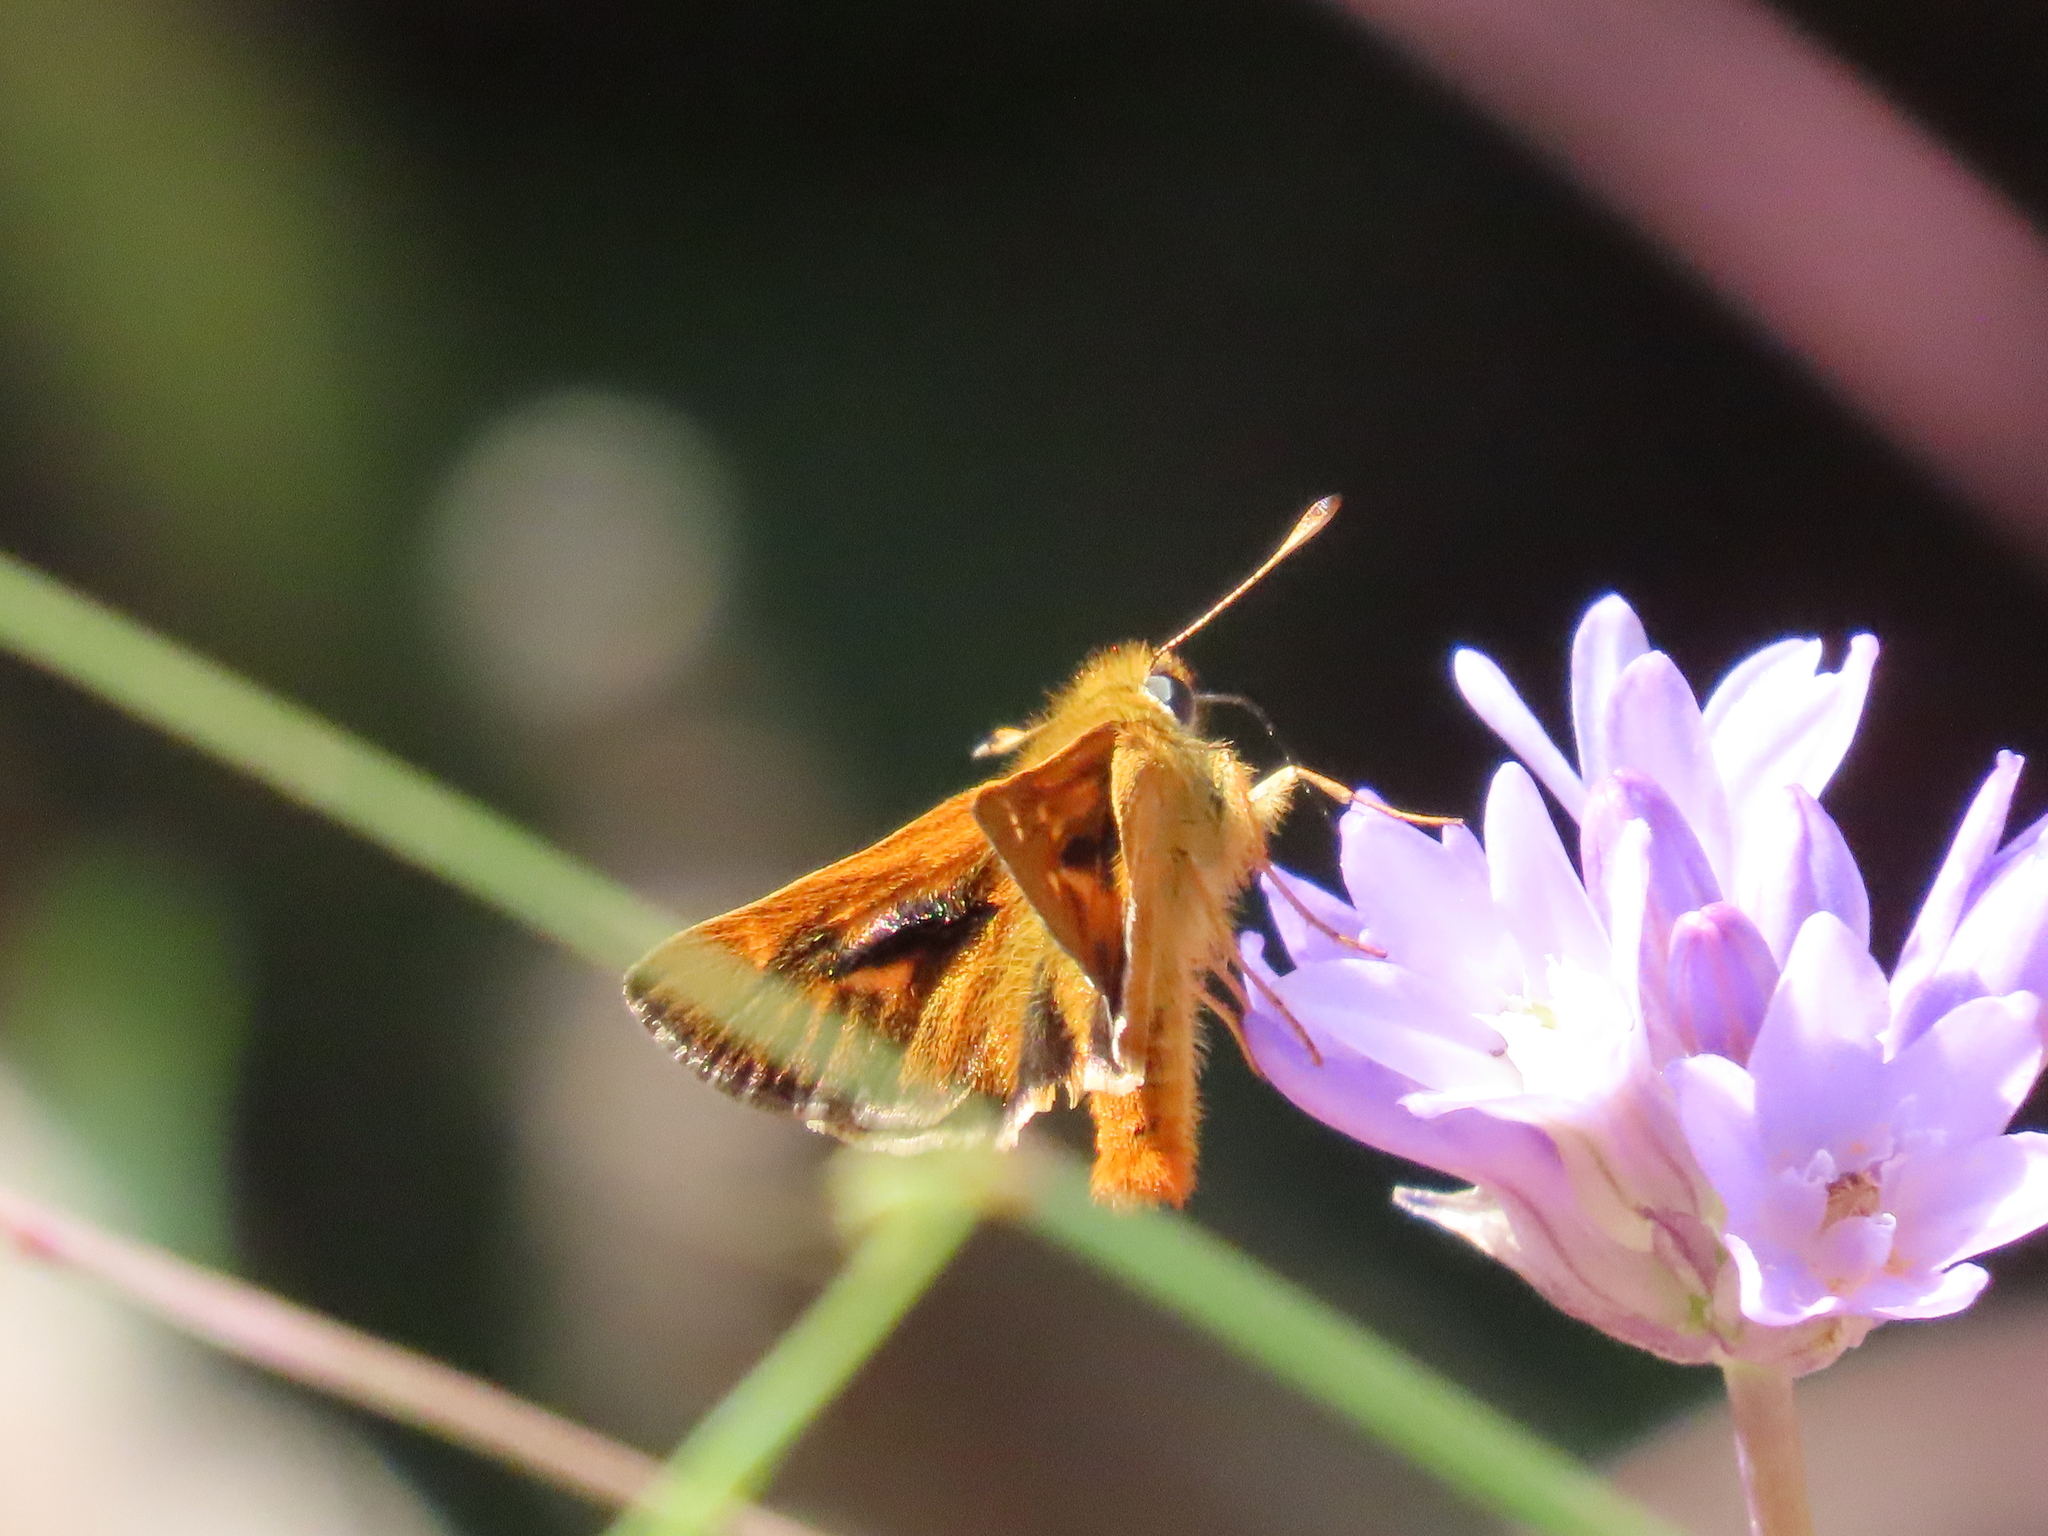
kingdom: Animalia
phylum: Arthropoda
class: Insecta
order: Lepidoptera
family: Hesperiidae
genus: Ochlodes
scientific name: Ochlodes agricola
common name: Rural skipper
